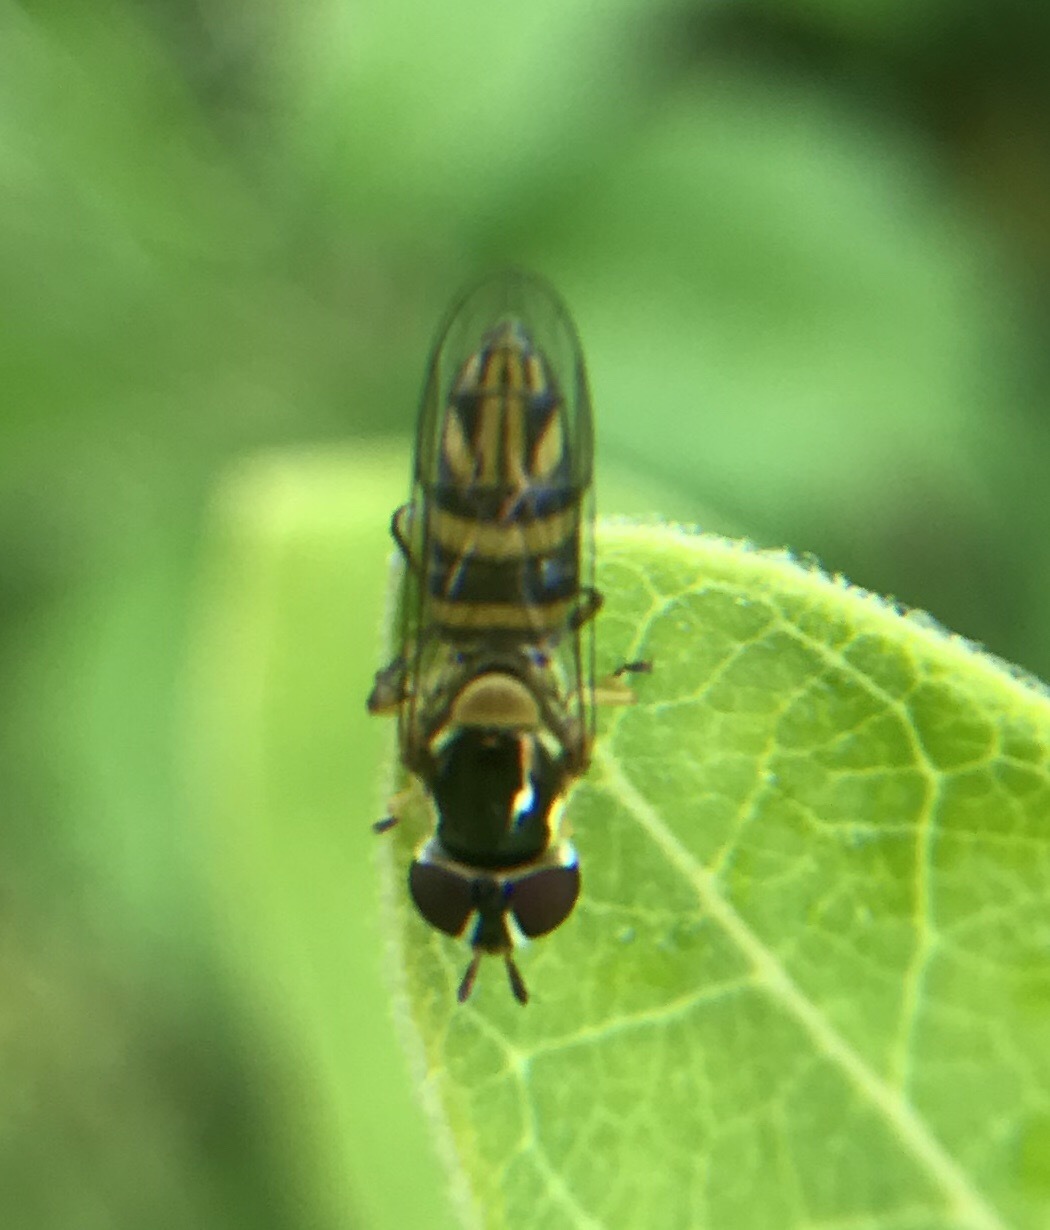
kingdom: Animalia
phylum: Arthropoda
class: Insecta
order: Diptera
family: Syrphidae
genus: Allograpta
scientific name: Allograpta obliqua
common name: Common oblique syrphid
